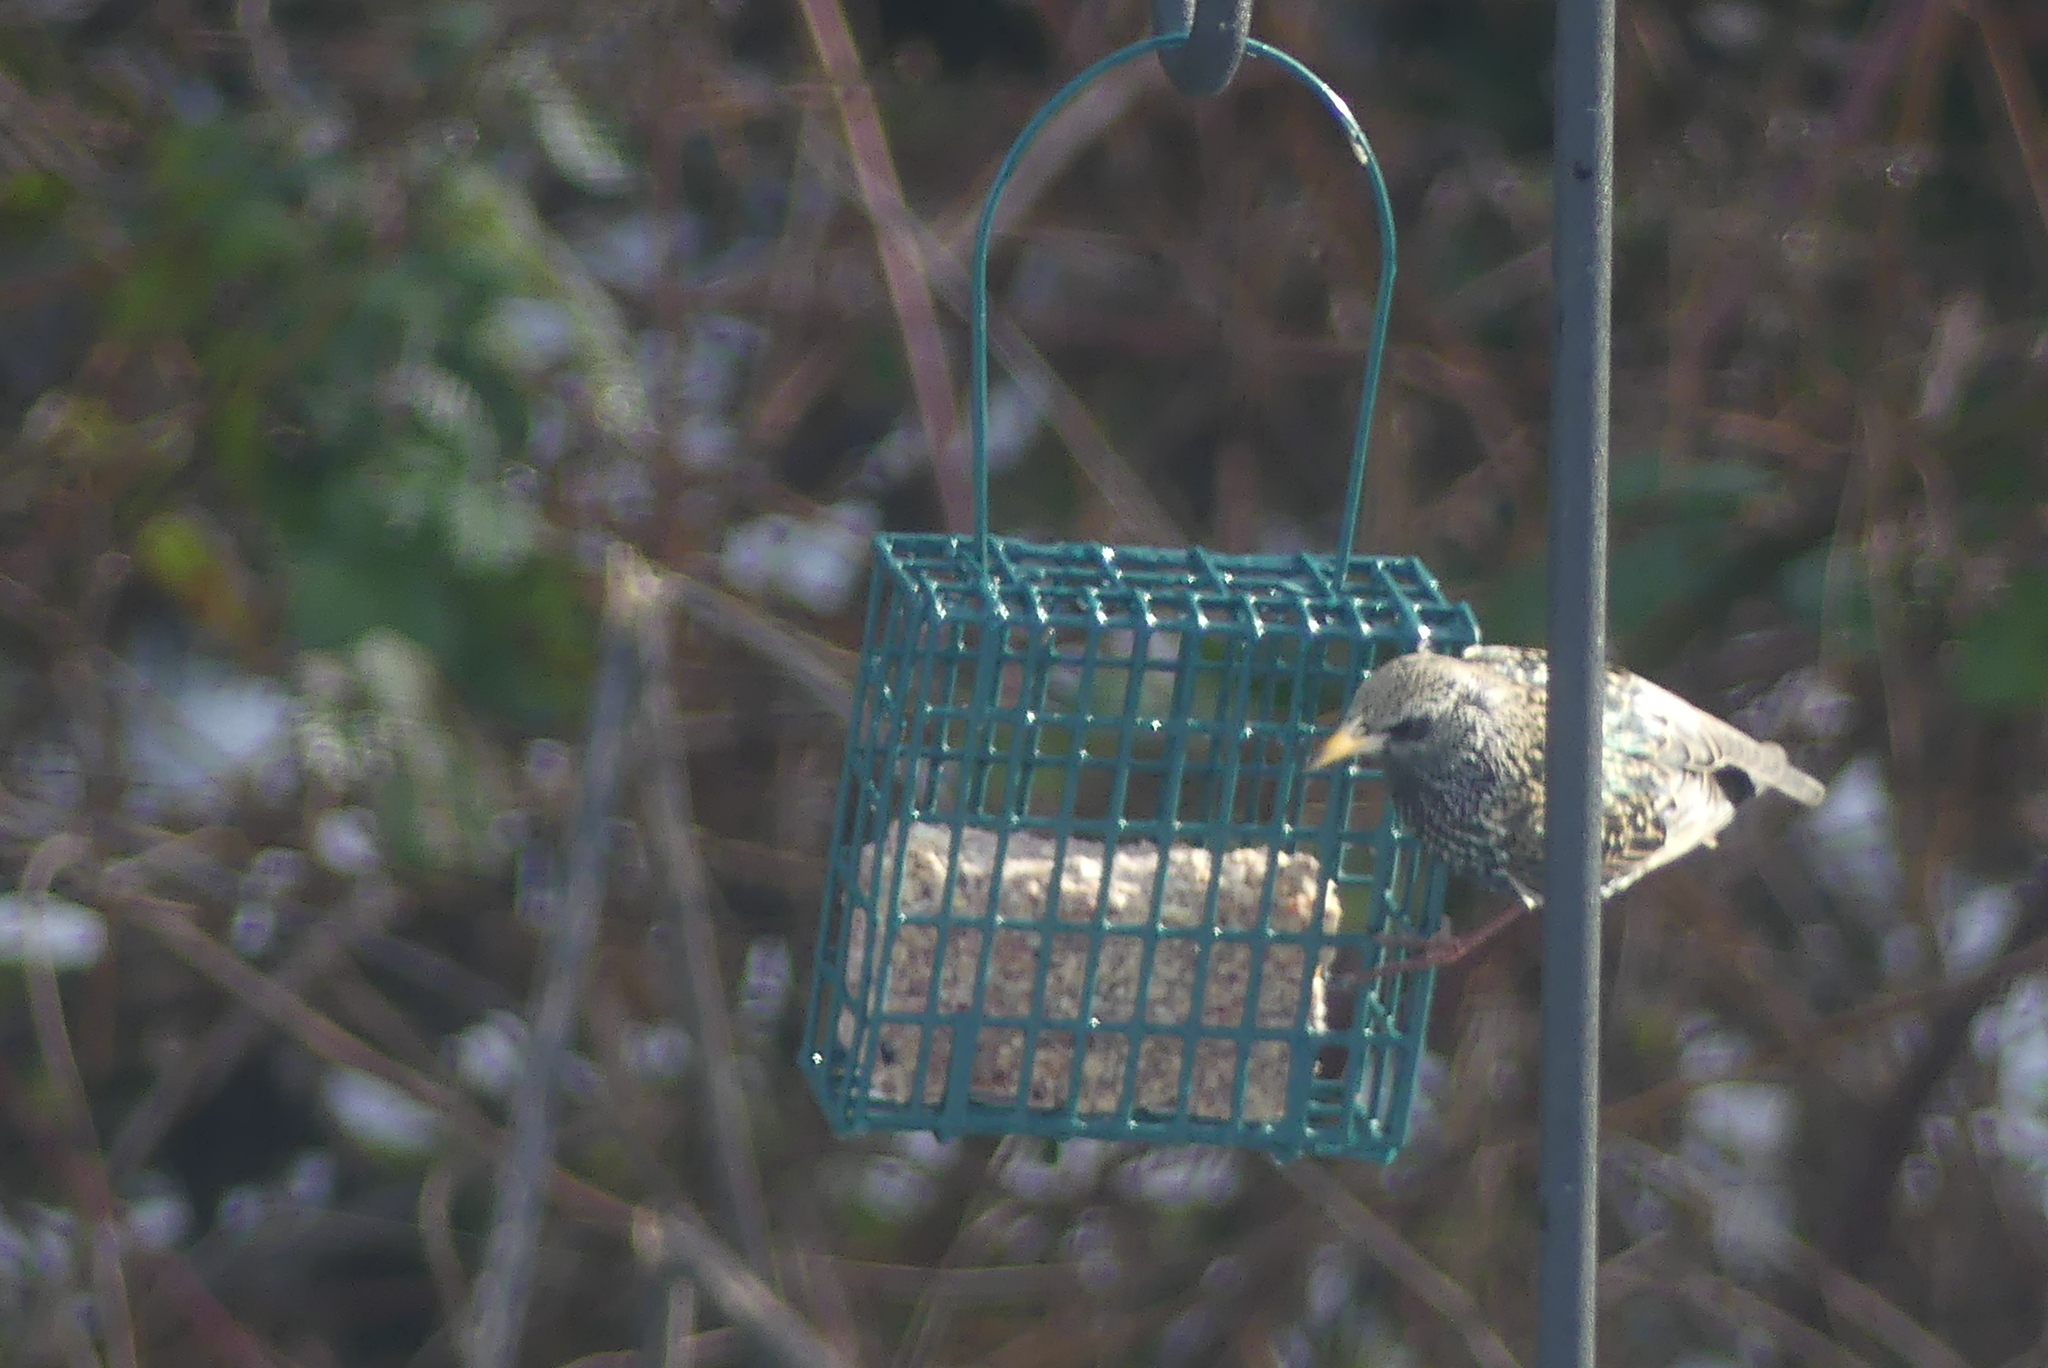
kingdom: Animalia
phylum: Chordata
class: Aves
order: Passeriformes
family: Sturnidae
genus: Sturnus
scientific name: Sturnus vulgaris
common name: Common starling
